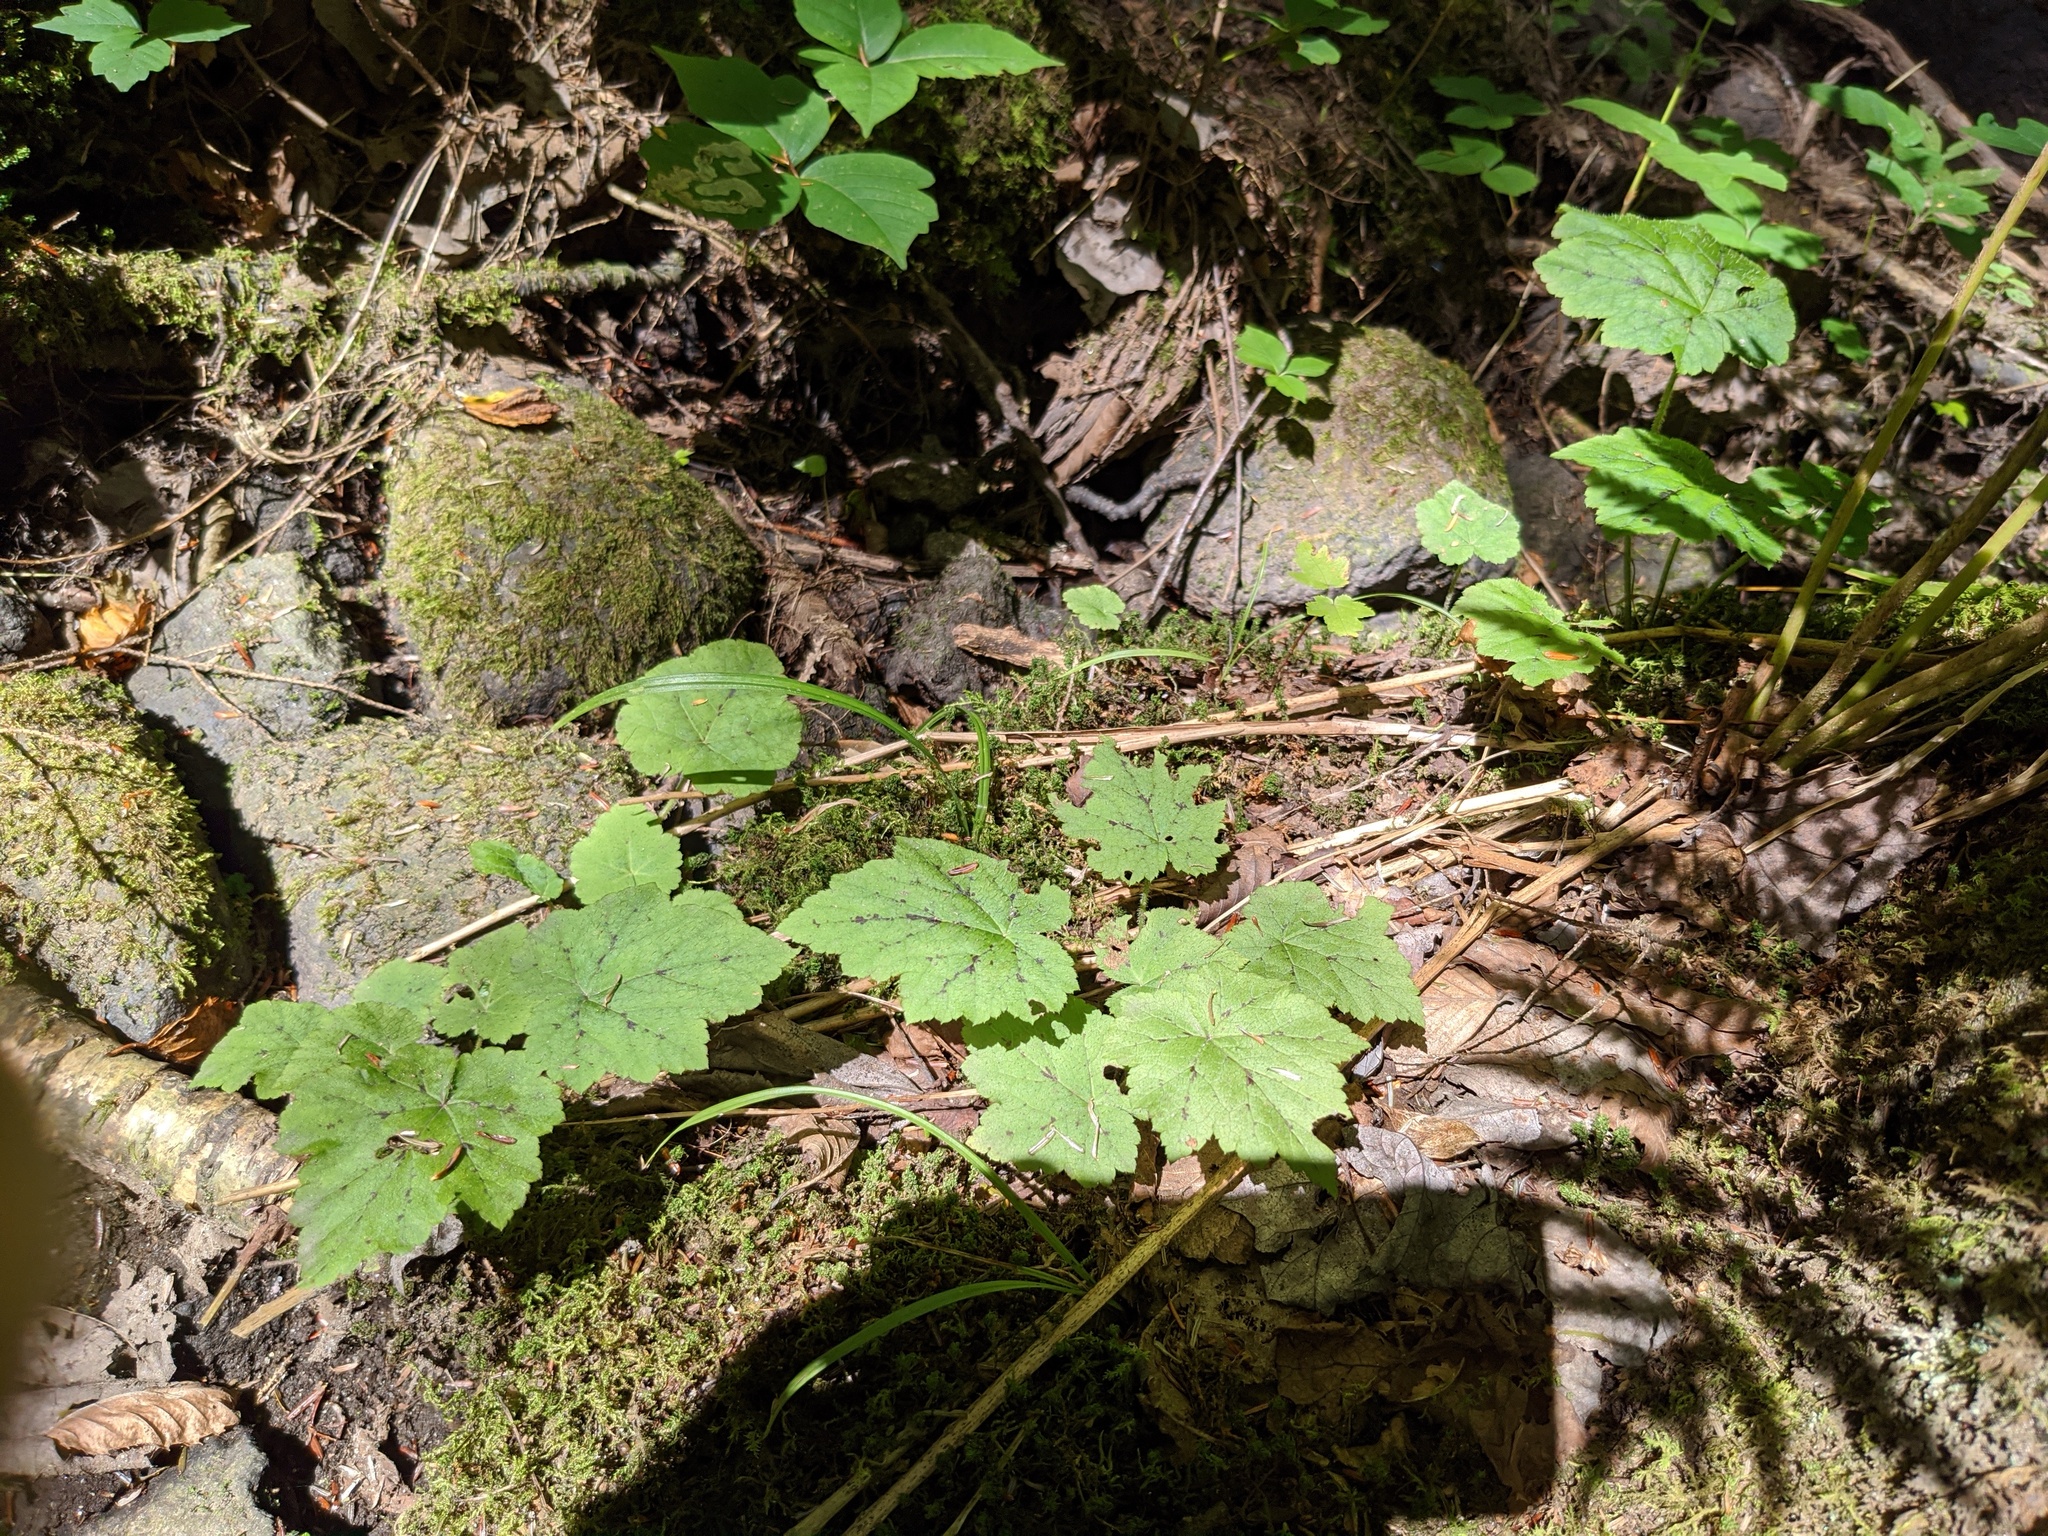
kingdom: Plantae
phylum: Tracheophyta
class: Magnoliopsida
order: Saxifragales
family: Saxifragaceae
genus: Tiarella
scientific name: Tiarella stolonifera
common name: Stoloniferous foamflower
